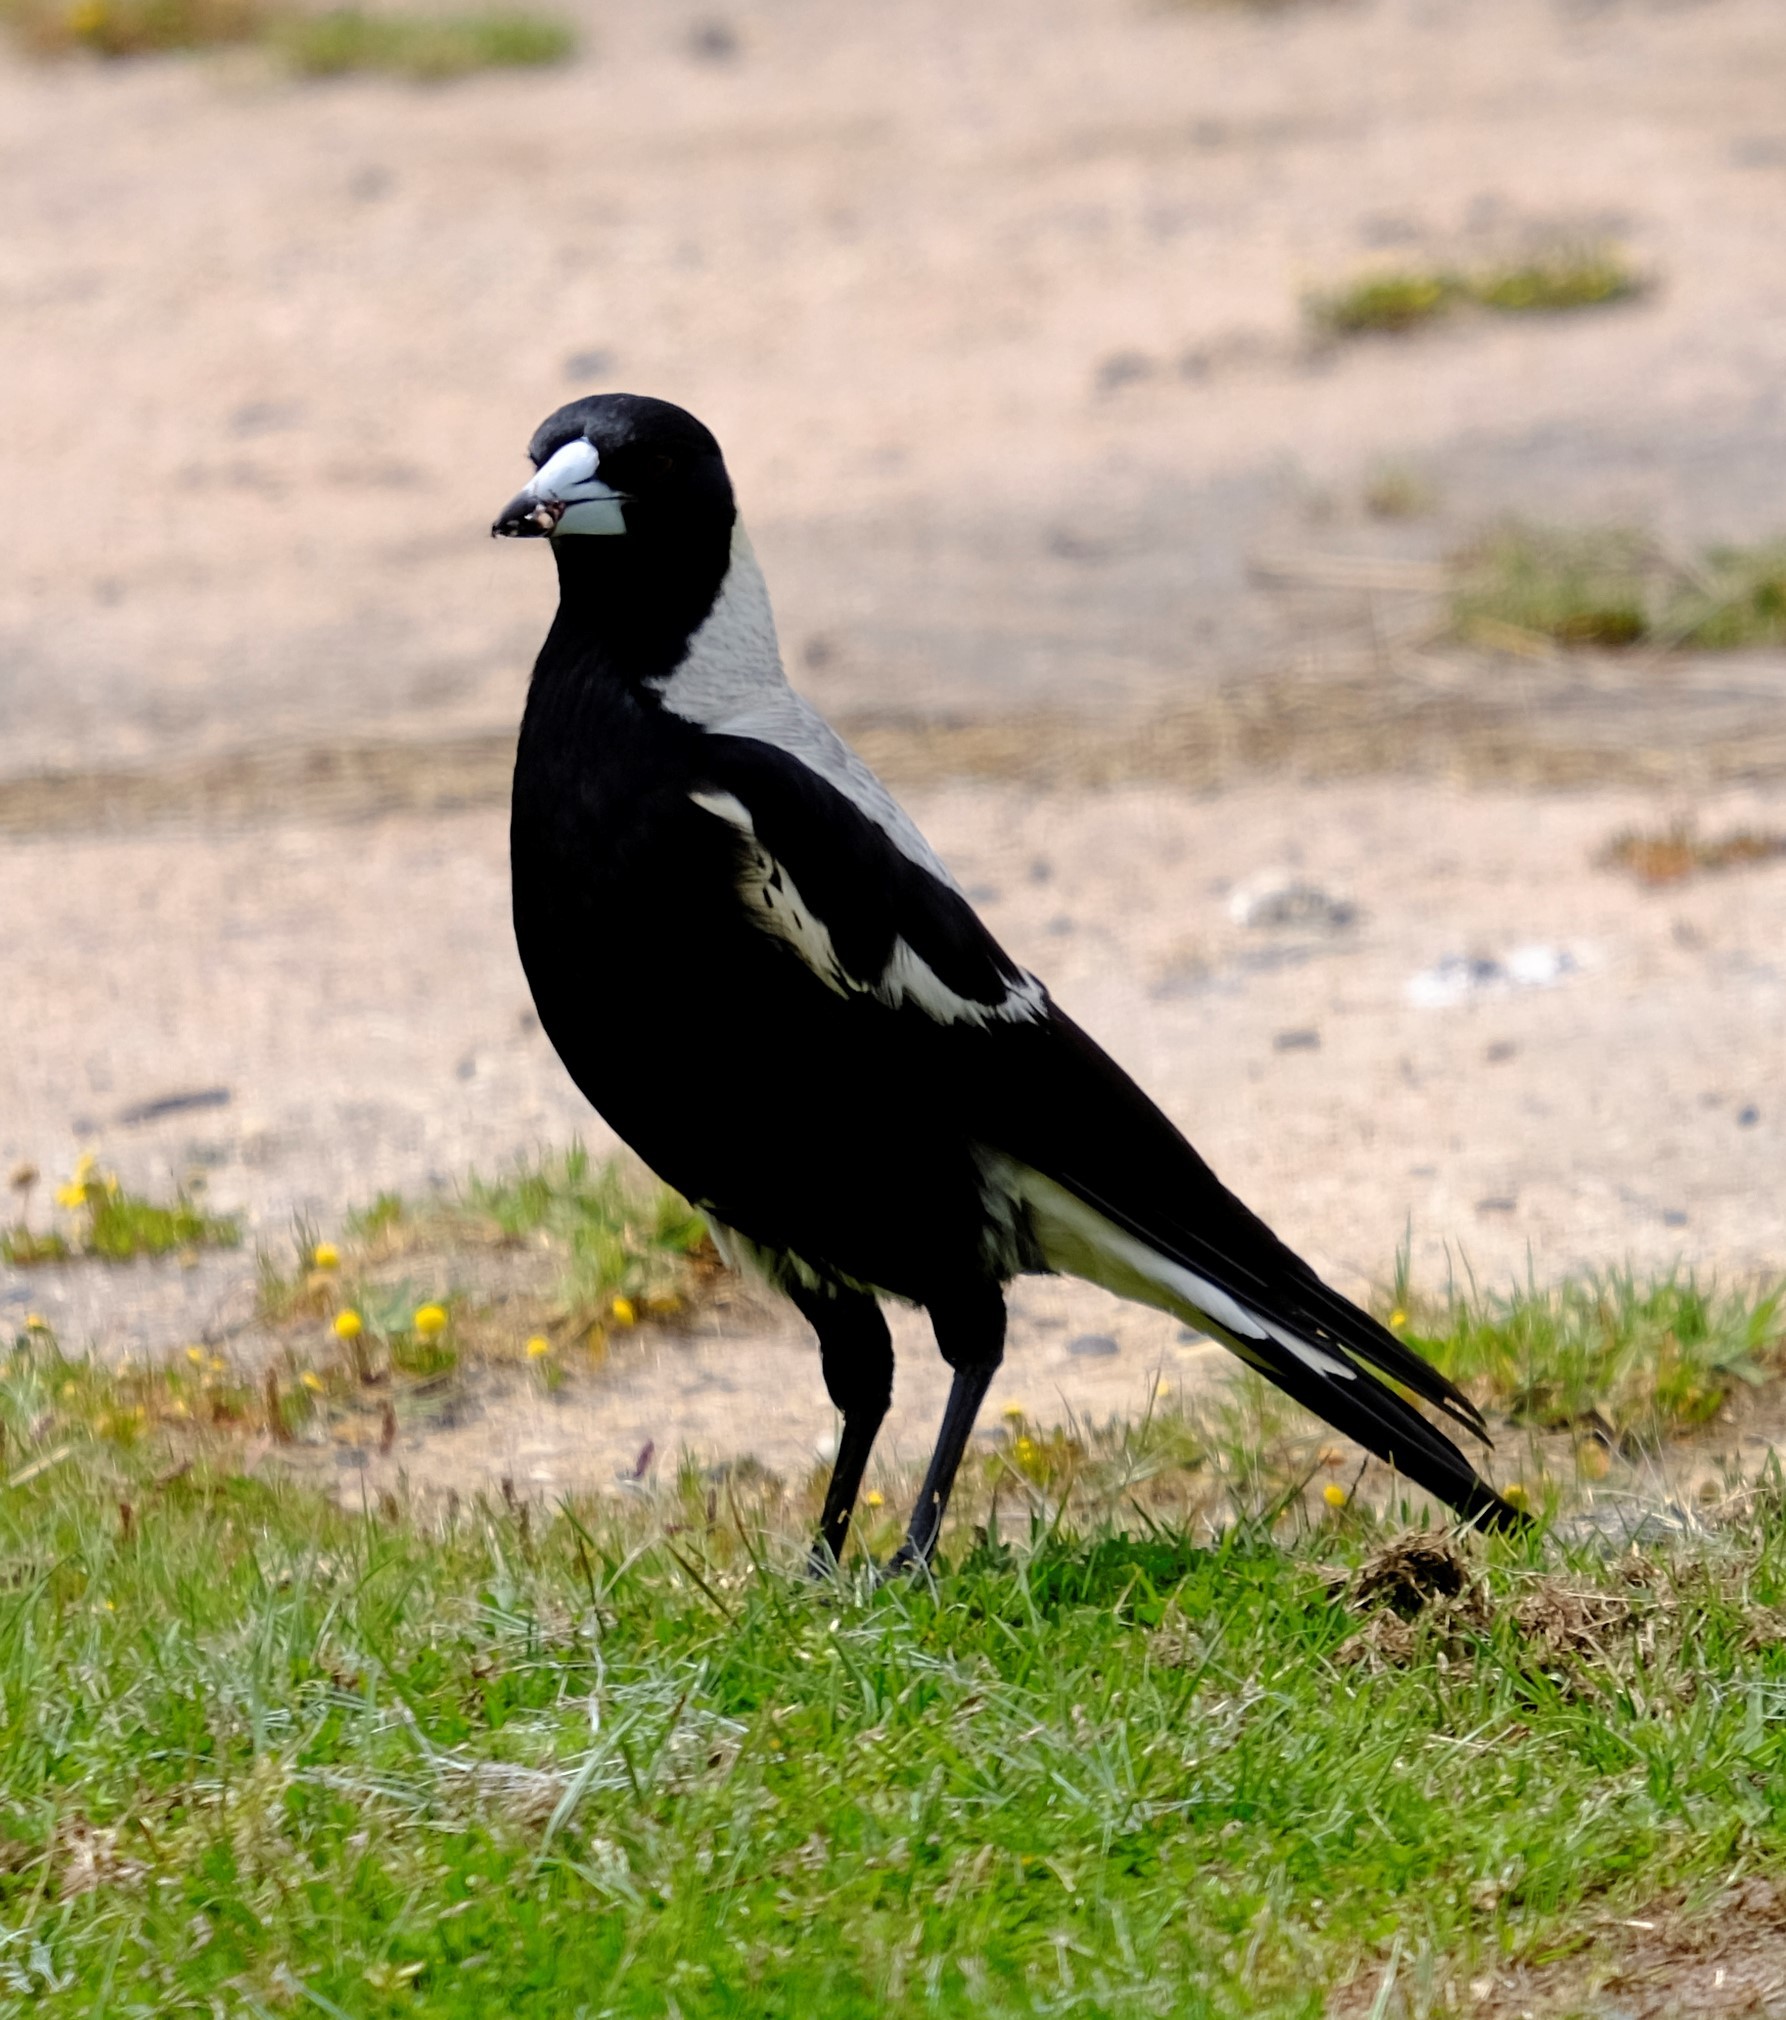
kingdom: Animalia
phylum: Chordata
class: Aves
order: Passeriformes
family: Cracticidae
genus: Gymnorhina
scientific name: Gymnorhina tibicen
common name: Australian magpie
